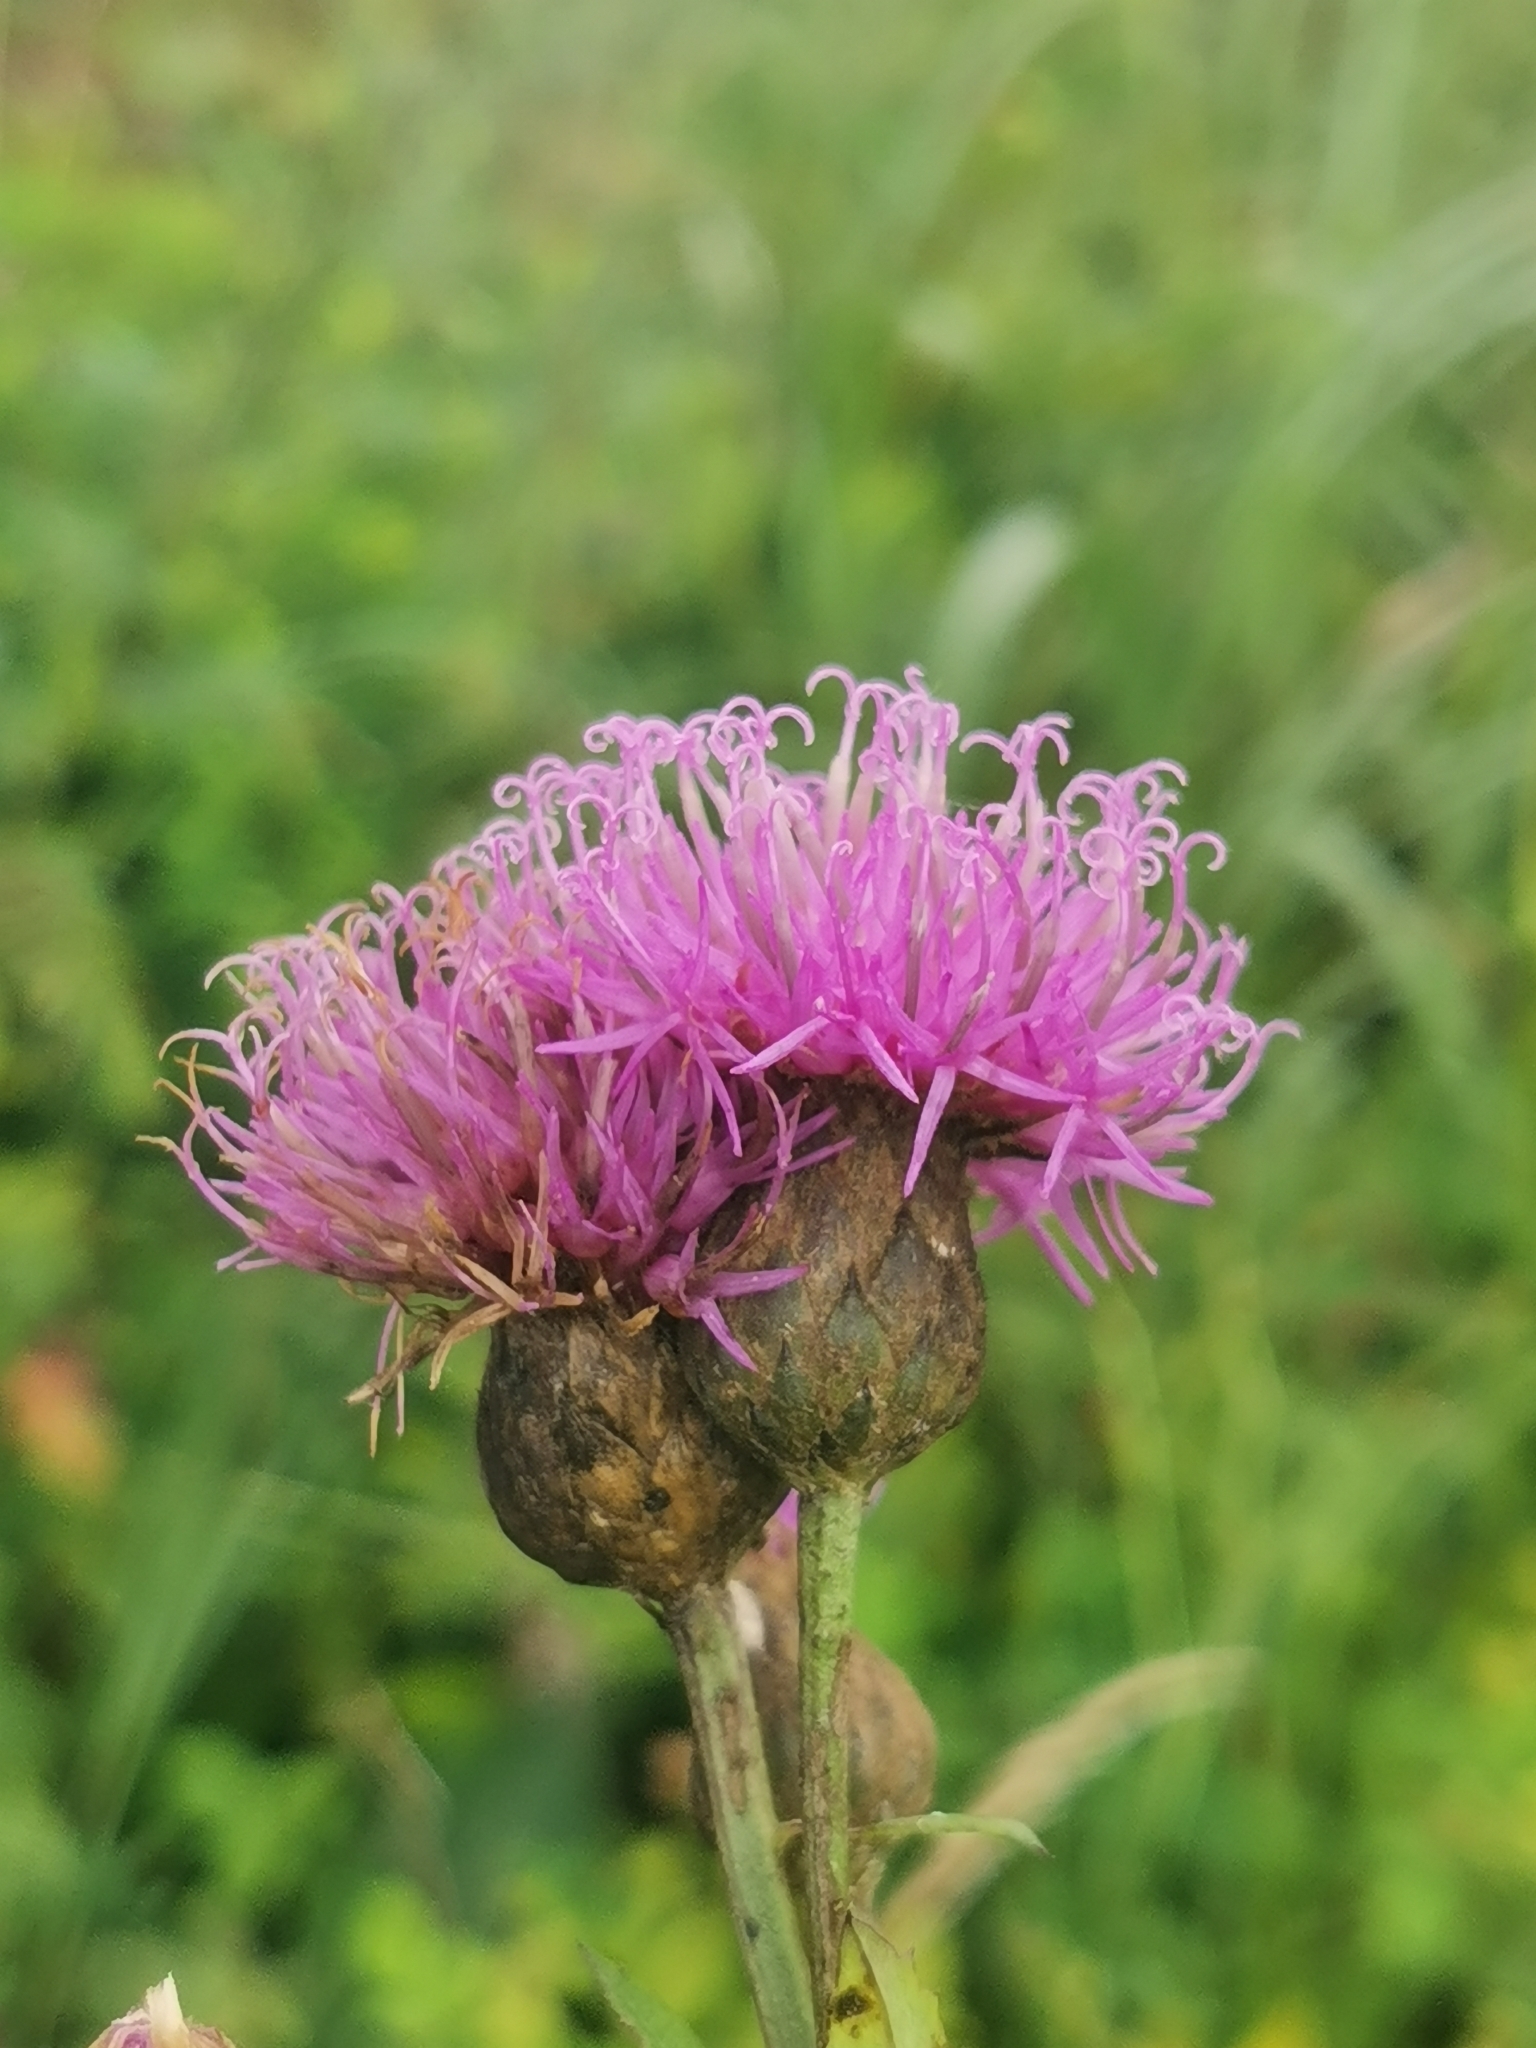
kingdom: Plantae
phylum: Tracheophyta
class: Magnoliopsida
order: Asterales
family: Asteraceae
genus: Serratula
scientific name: Serratula coronata
